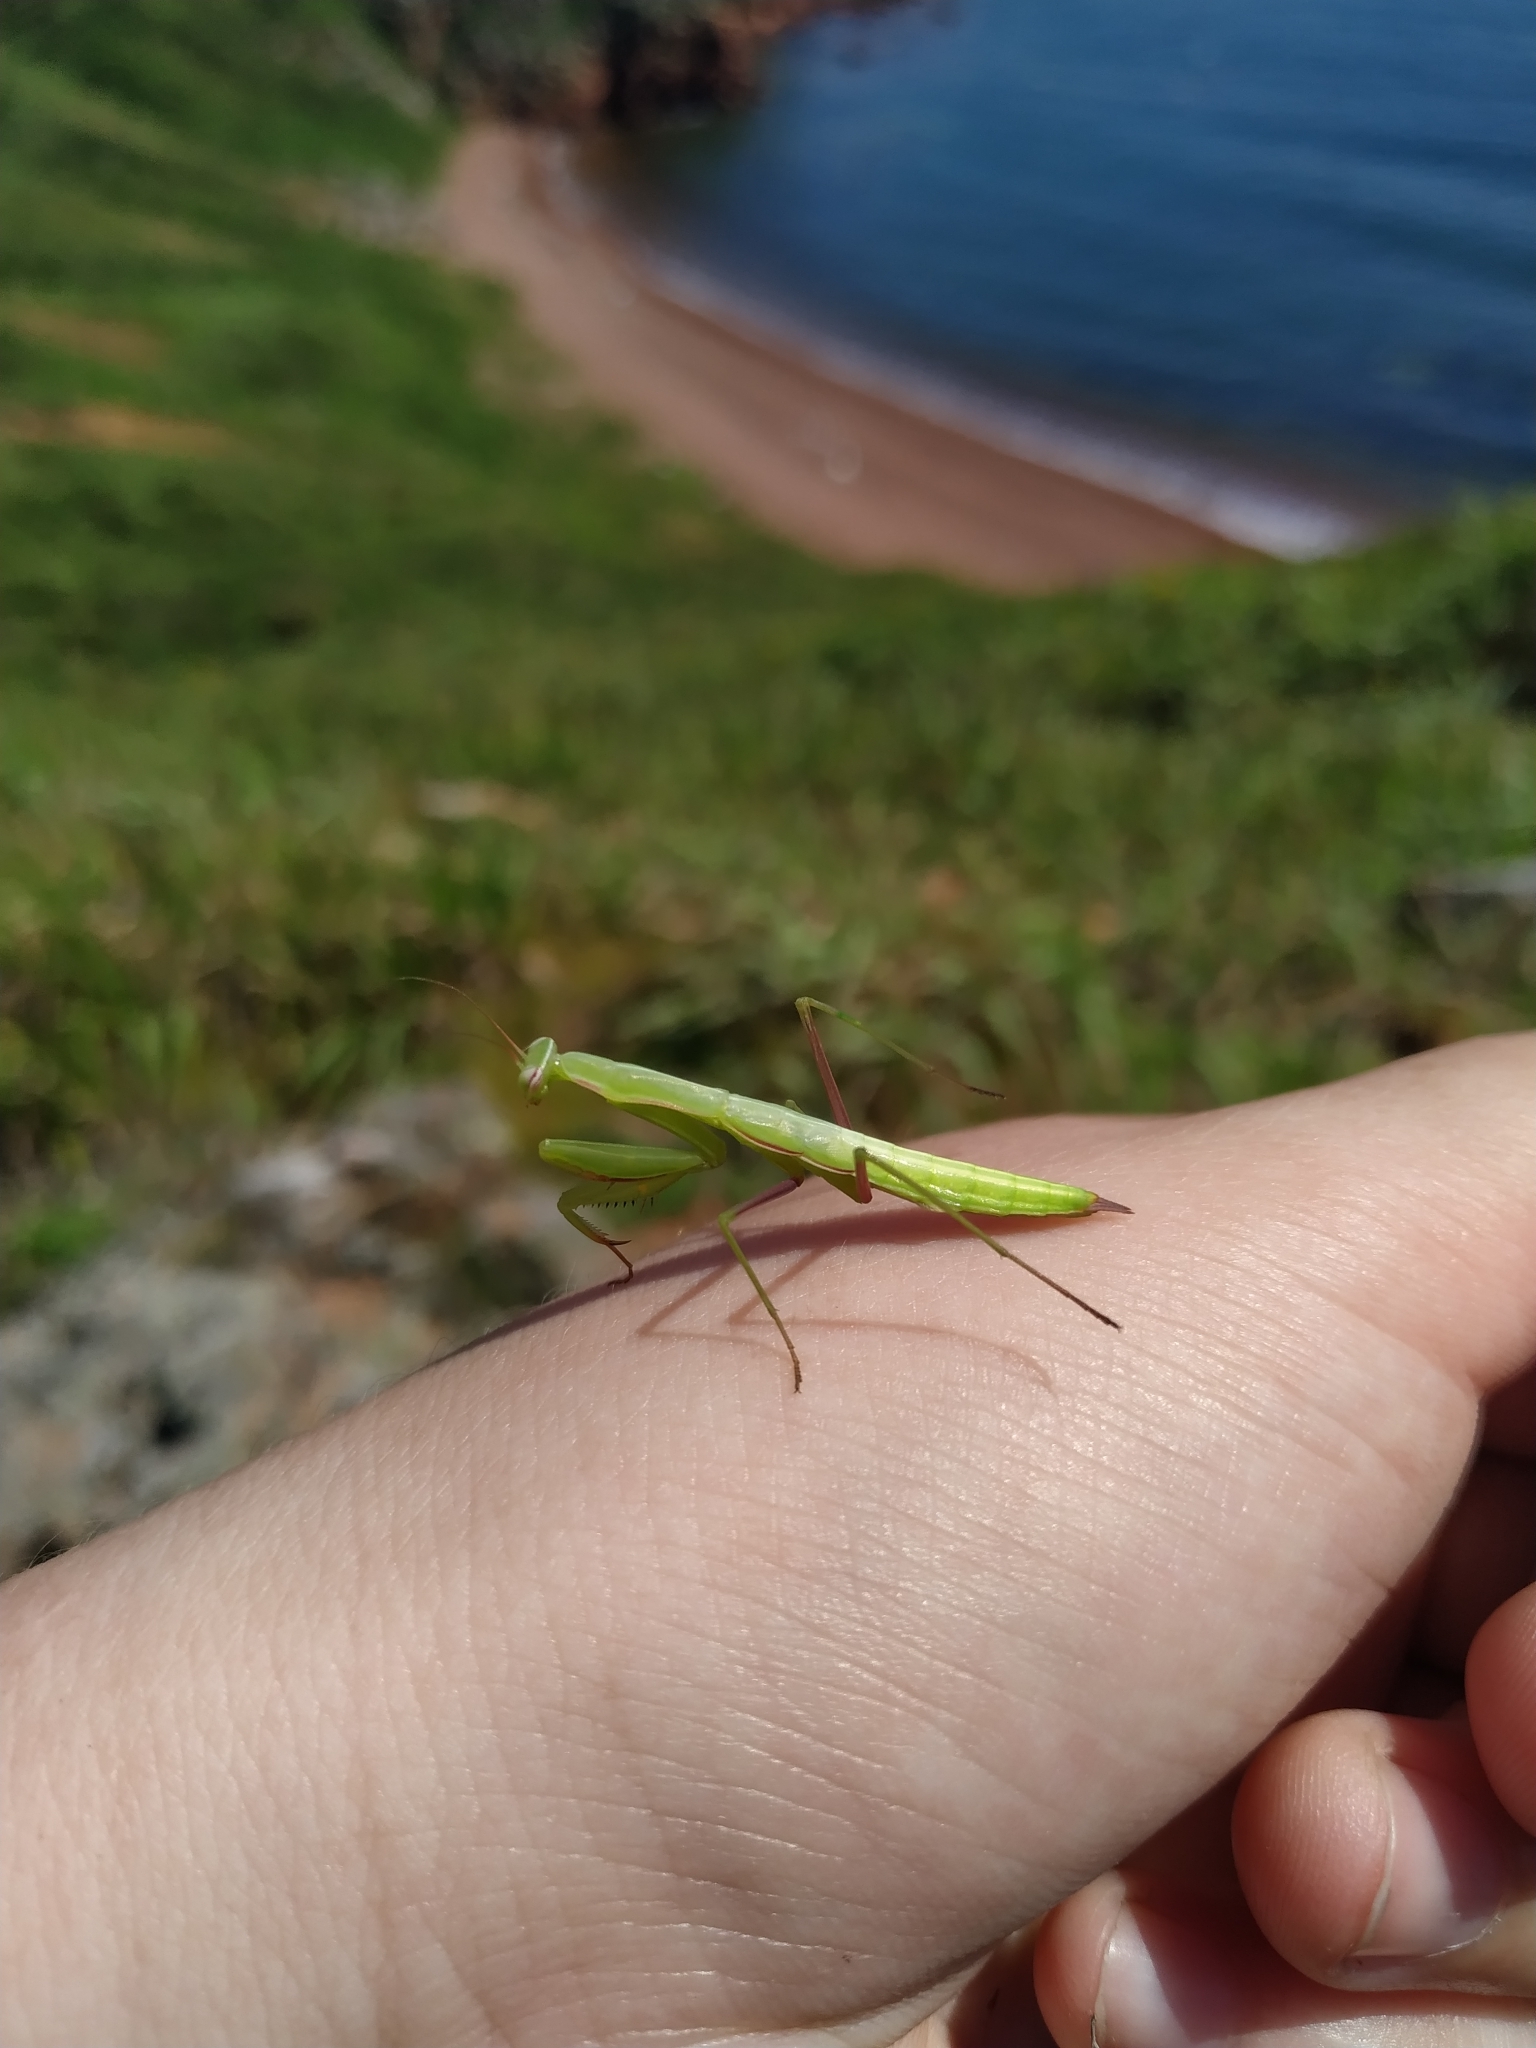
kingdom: Animalia
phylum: Arthropoda
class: Insecta
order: Mantodea
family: Mantidae
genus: Mantis
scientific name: Mantis religiosa
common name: Praying mantis
